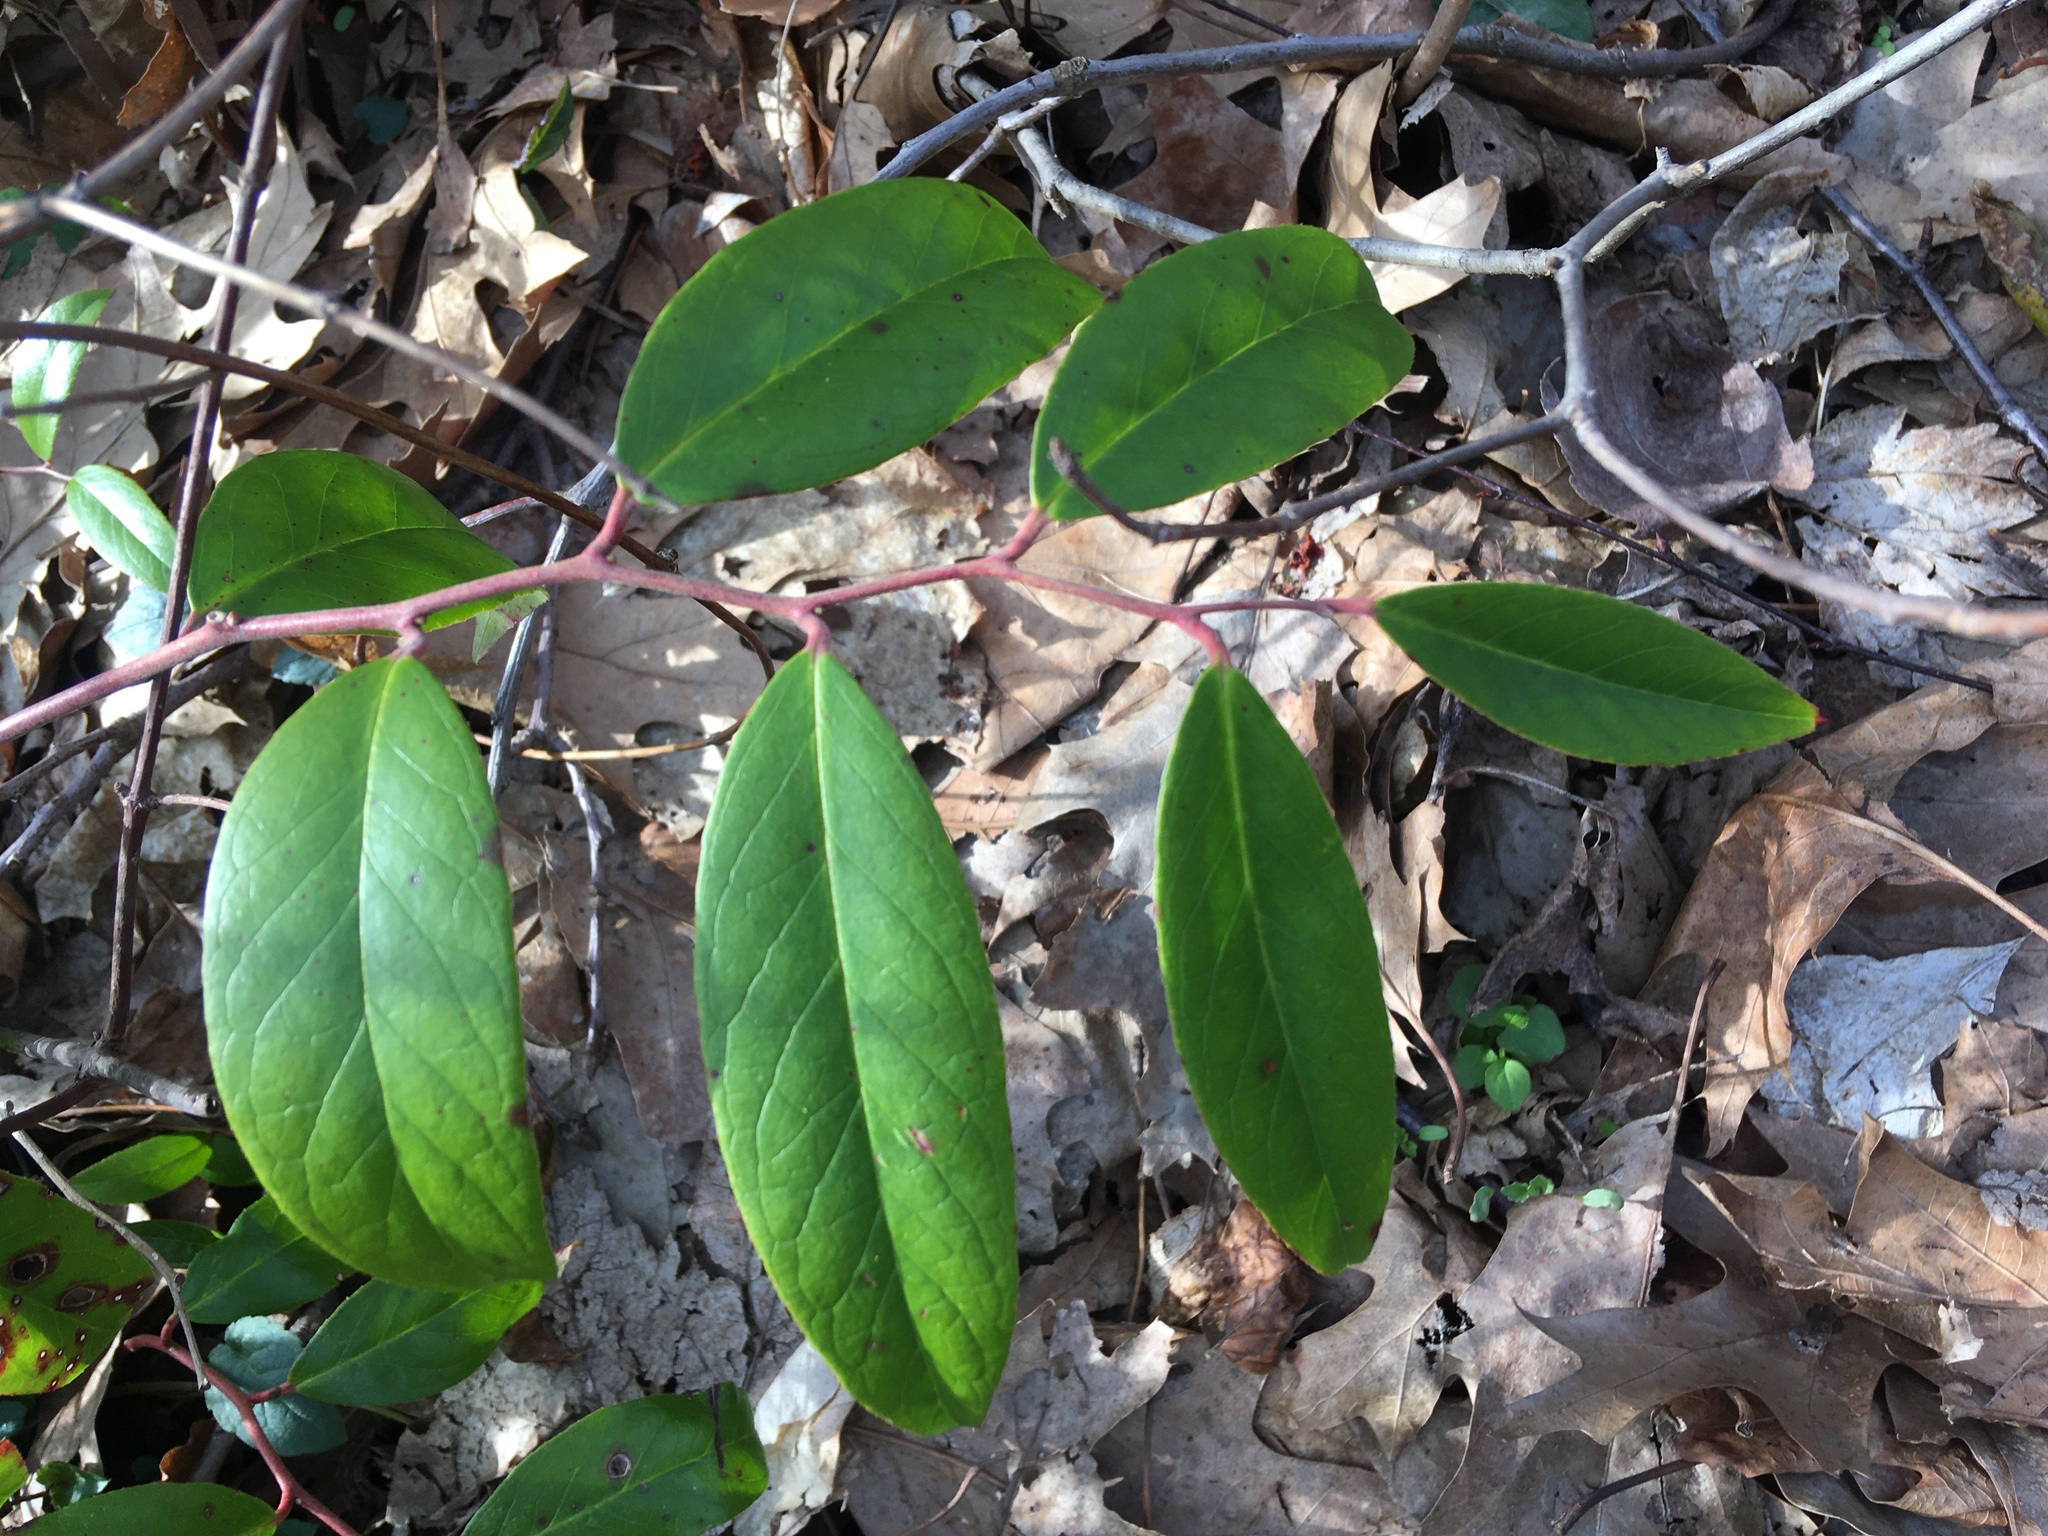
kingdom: Plantae
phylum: Tracheophyta
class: Magnoliopsida
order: Ericales
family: Ericaceae
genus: Leucothoe
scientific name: Leucothoe axillaris
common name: Leucothoe
